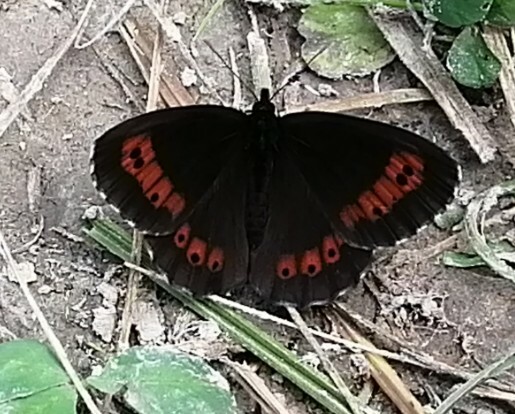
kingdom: Animalia
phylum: Arthropoda
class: Insecta
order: Lepidoptera
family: Nymphalidae
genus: Erebia
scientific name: Erebia ligea
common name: Arran brown
